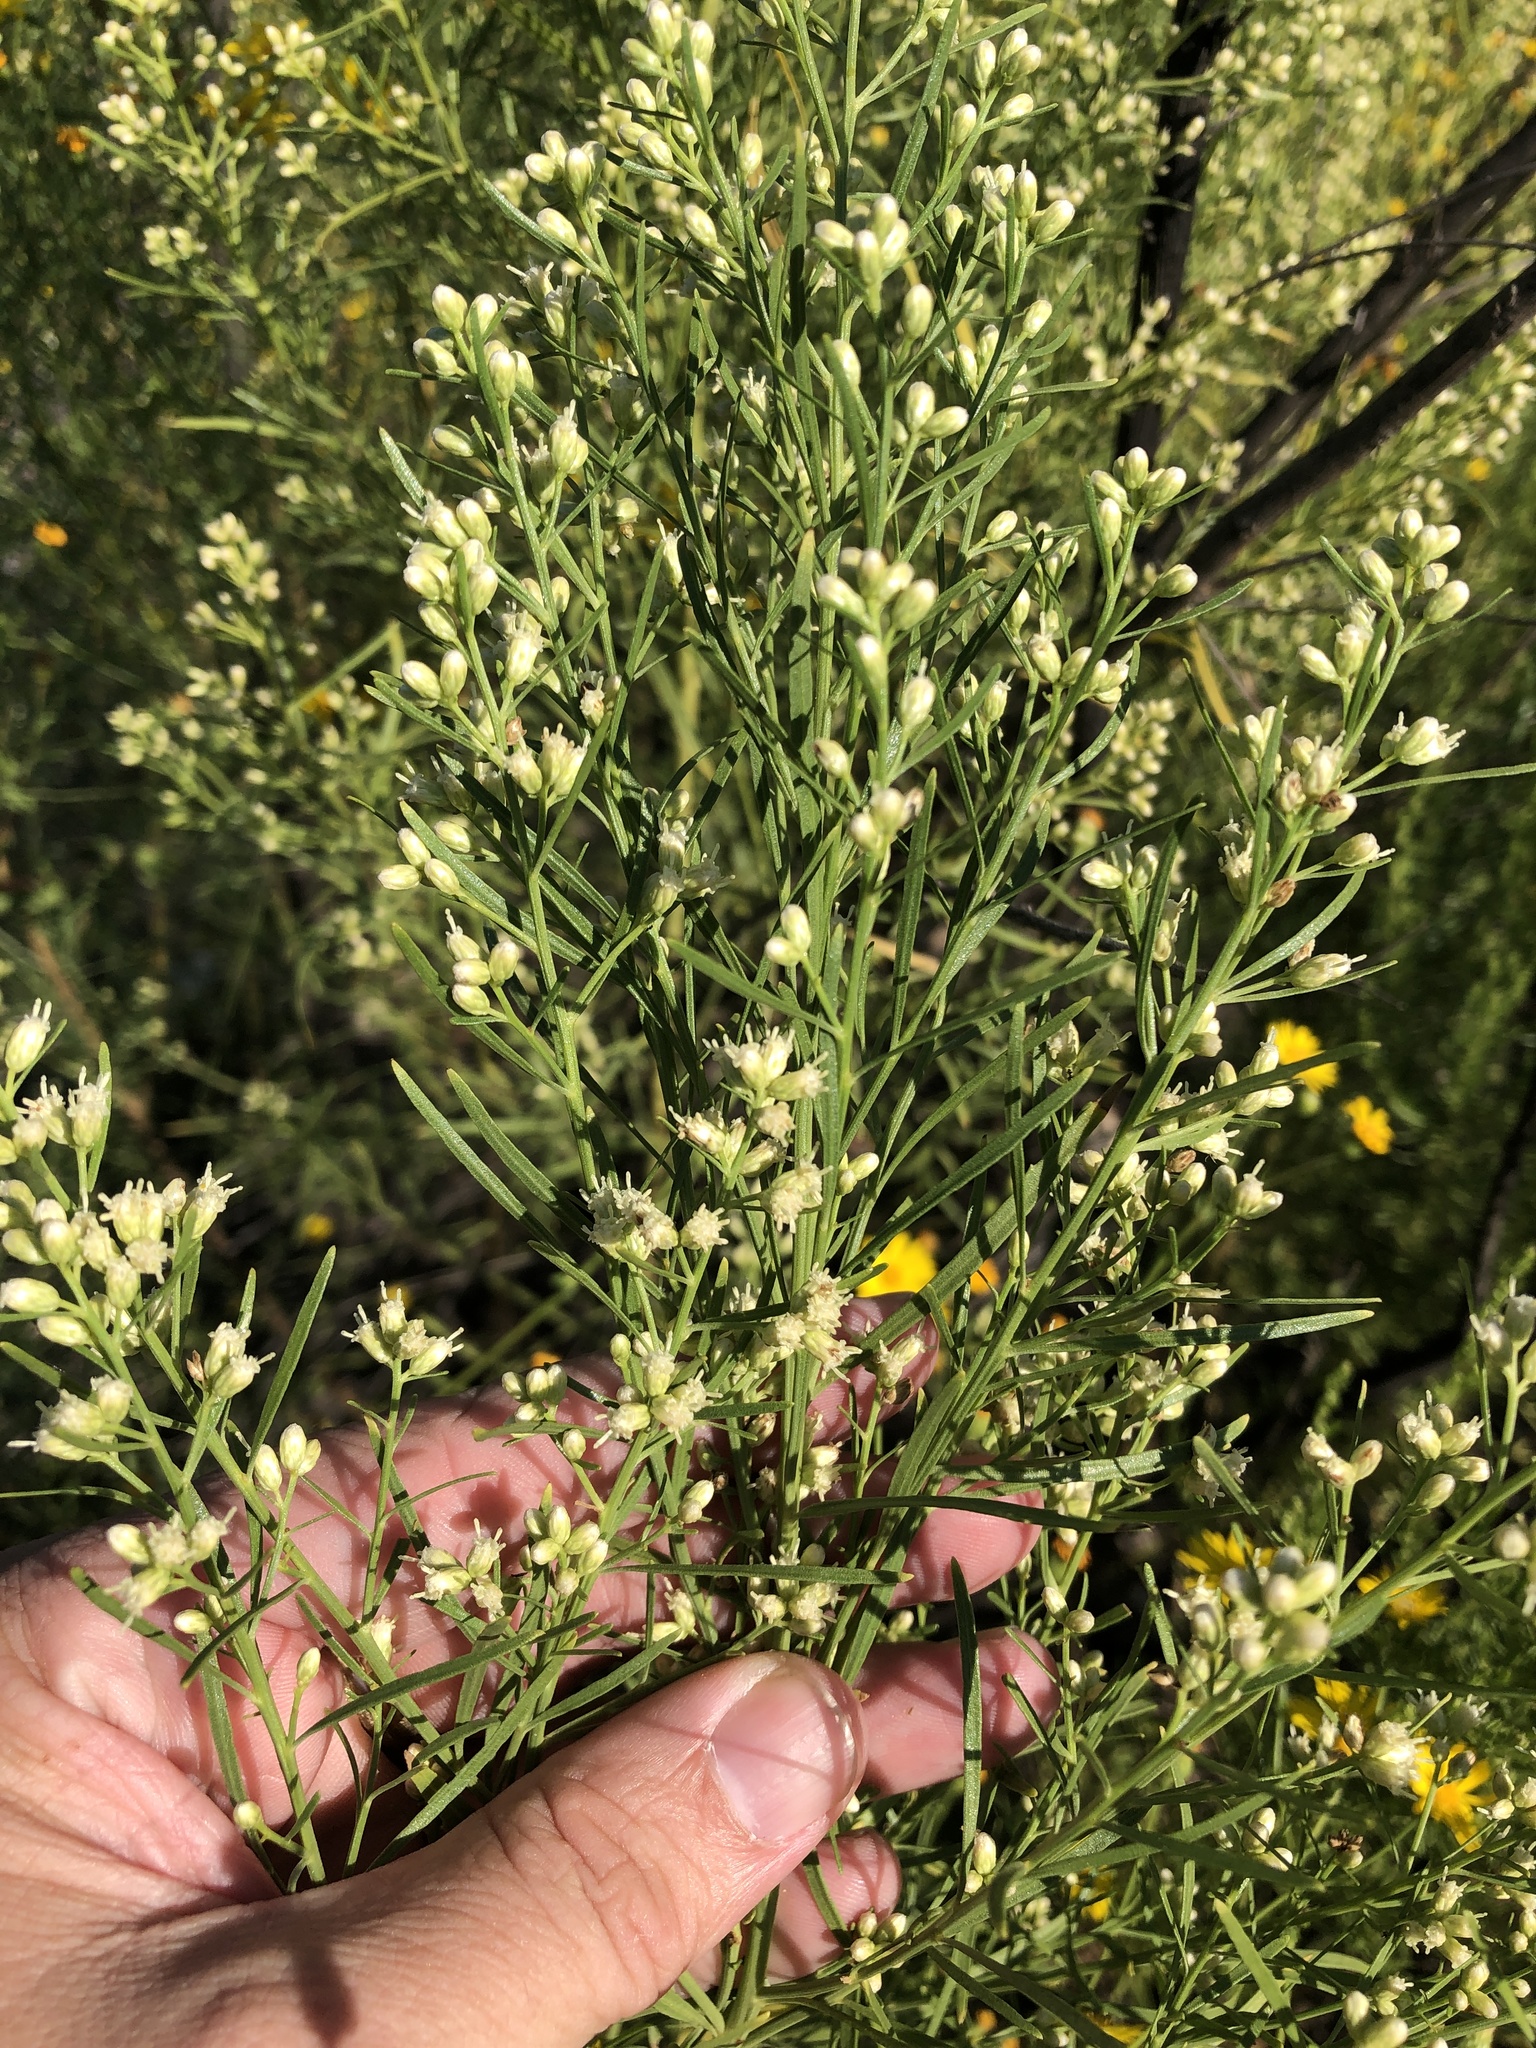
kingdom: Plantae
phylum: Tracheophyta
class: Magnoliopsida
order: Asterales
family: Asteraceae
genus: Baccharis
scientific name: Baccharis neglecta
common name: Roosevelt-weed
